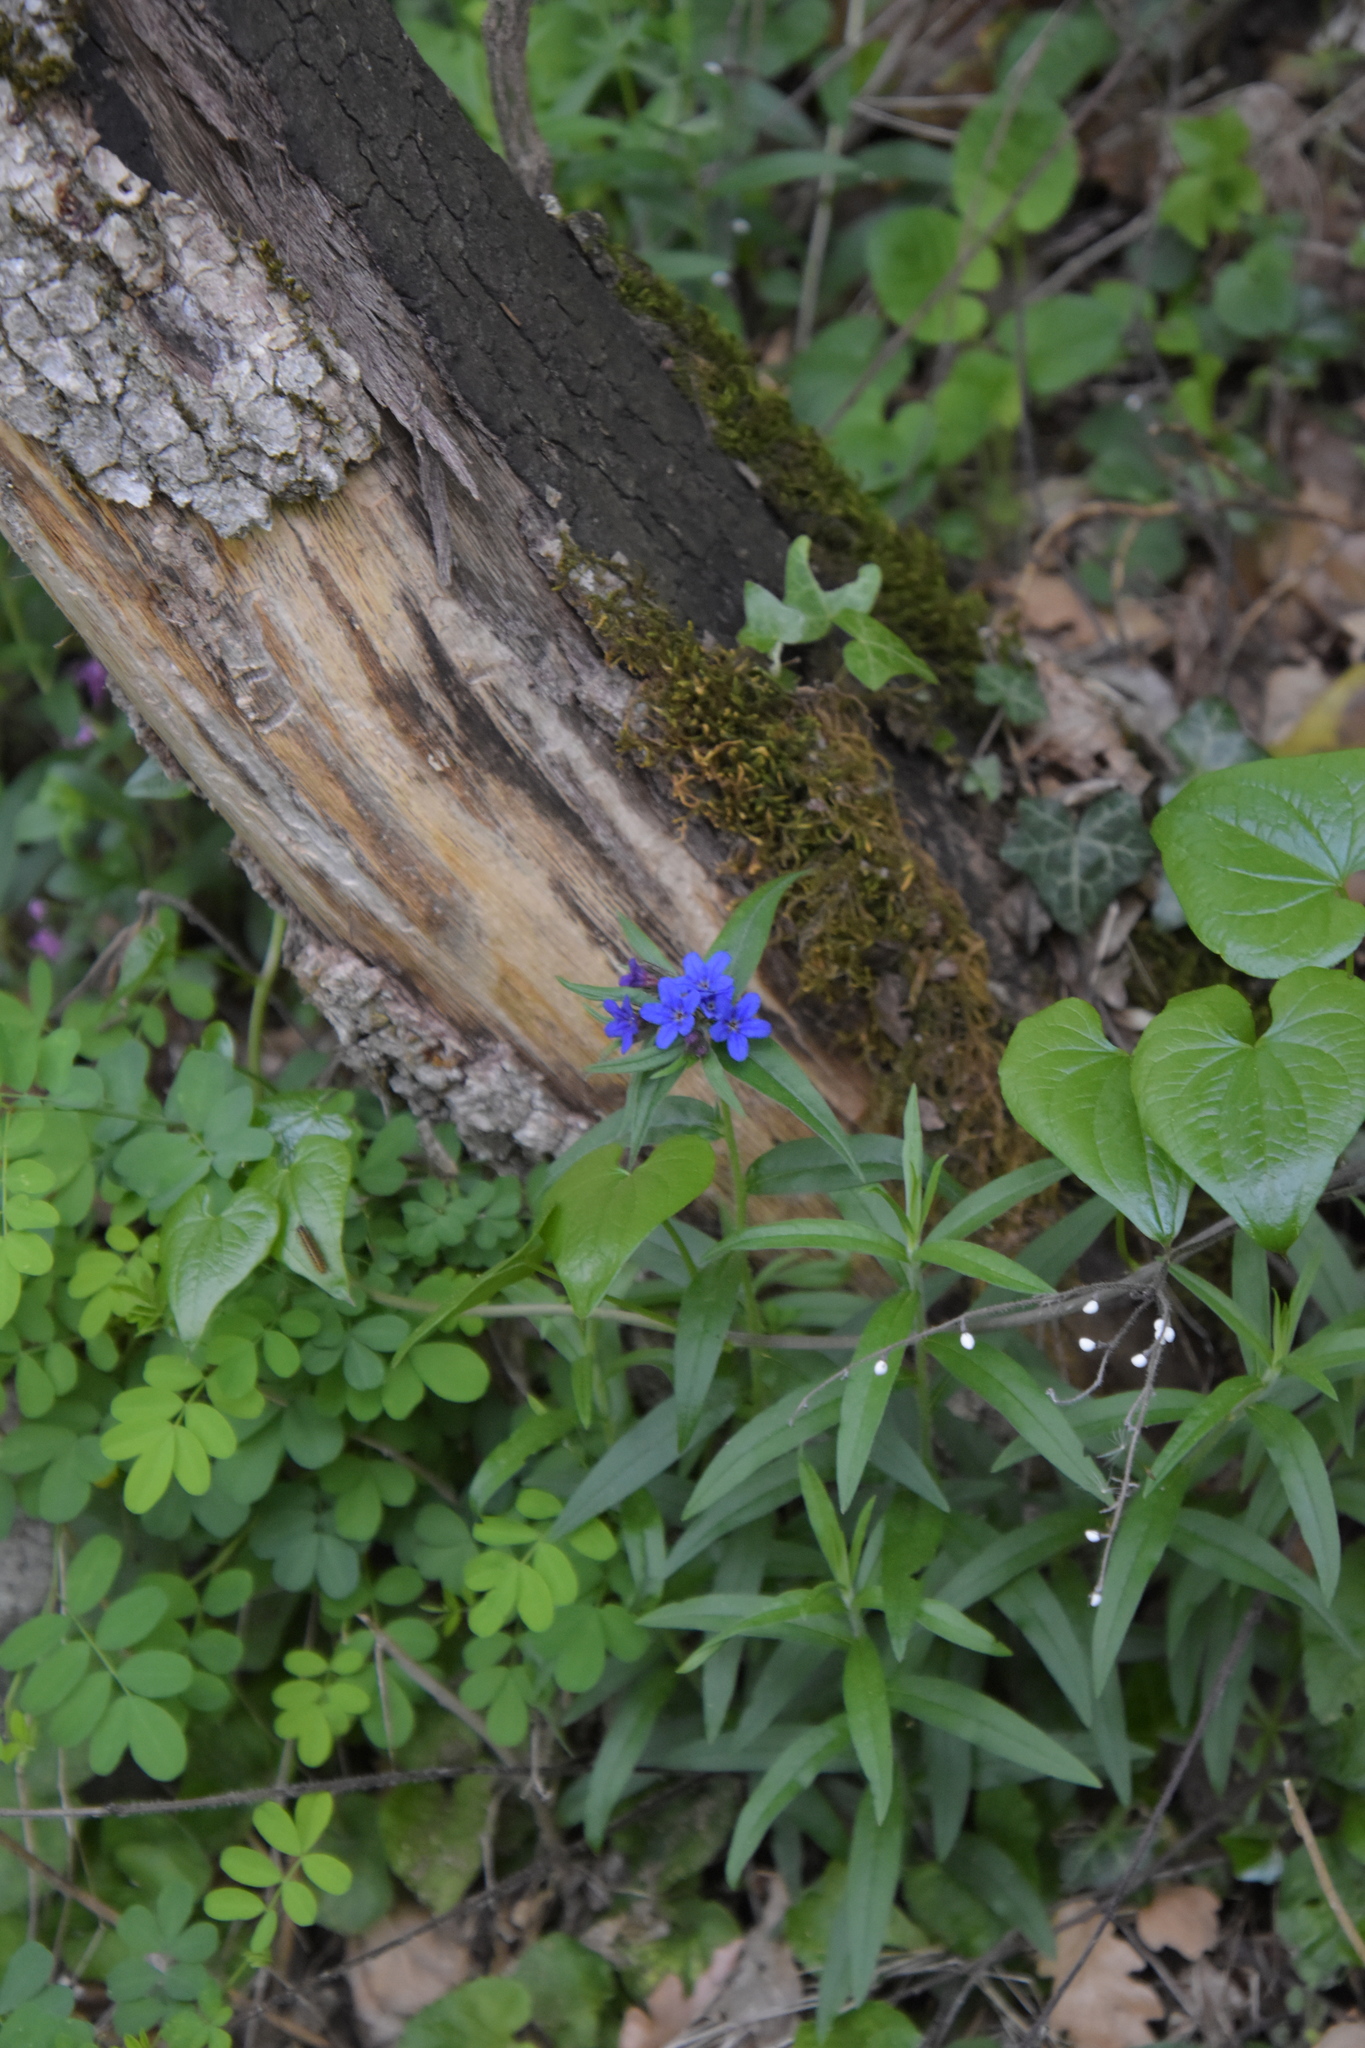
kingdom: Plantae
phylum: Tracheophyta
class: Magnoliopsida
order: Boraginales
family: Boraginaceae
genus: Aegonychon
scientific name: Aegonychon purpurocaeruleum
